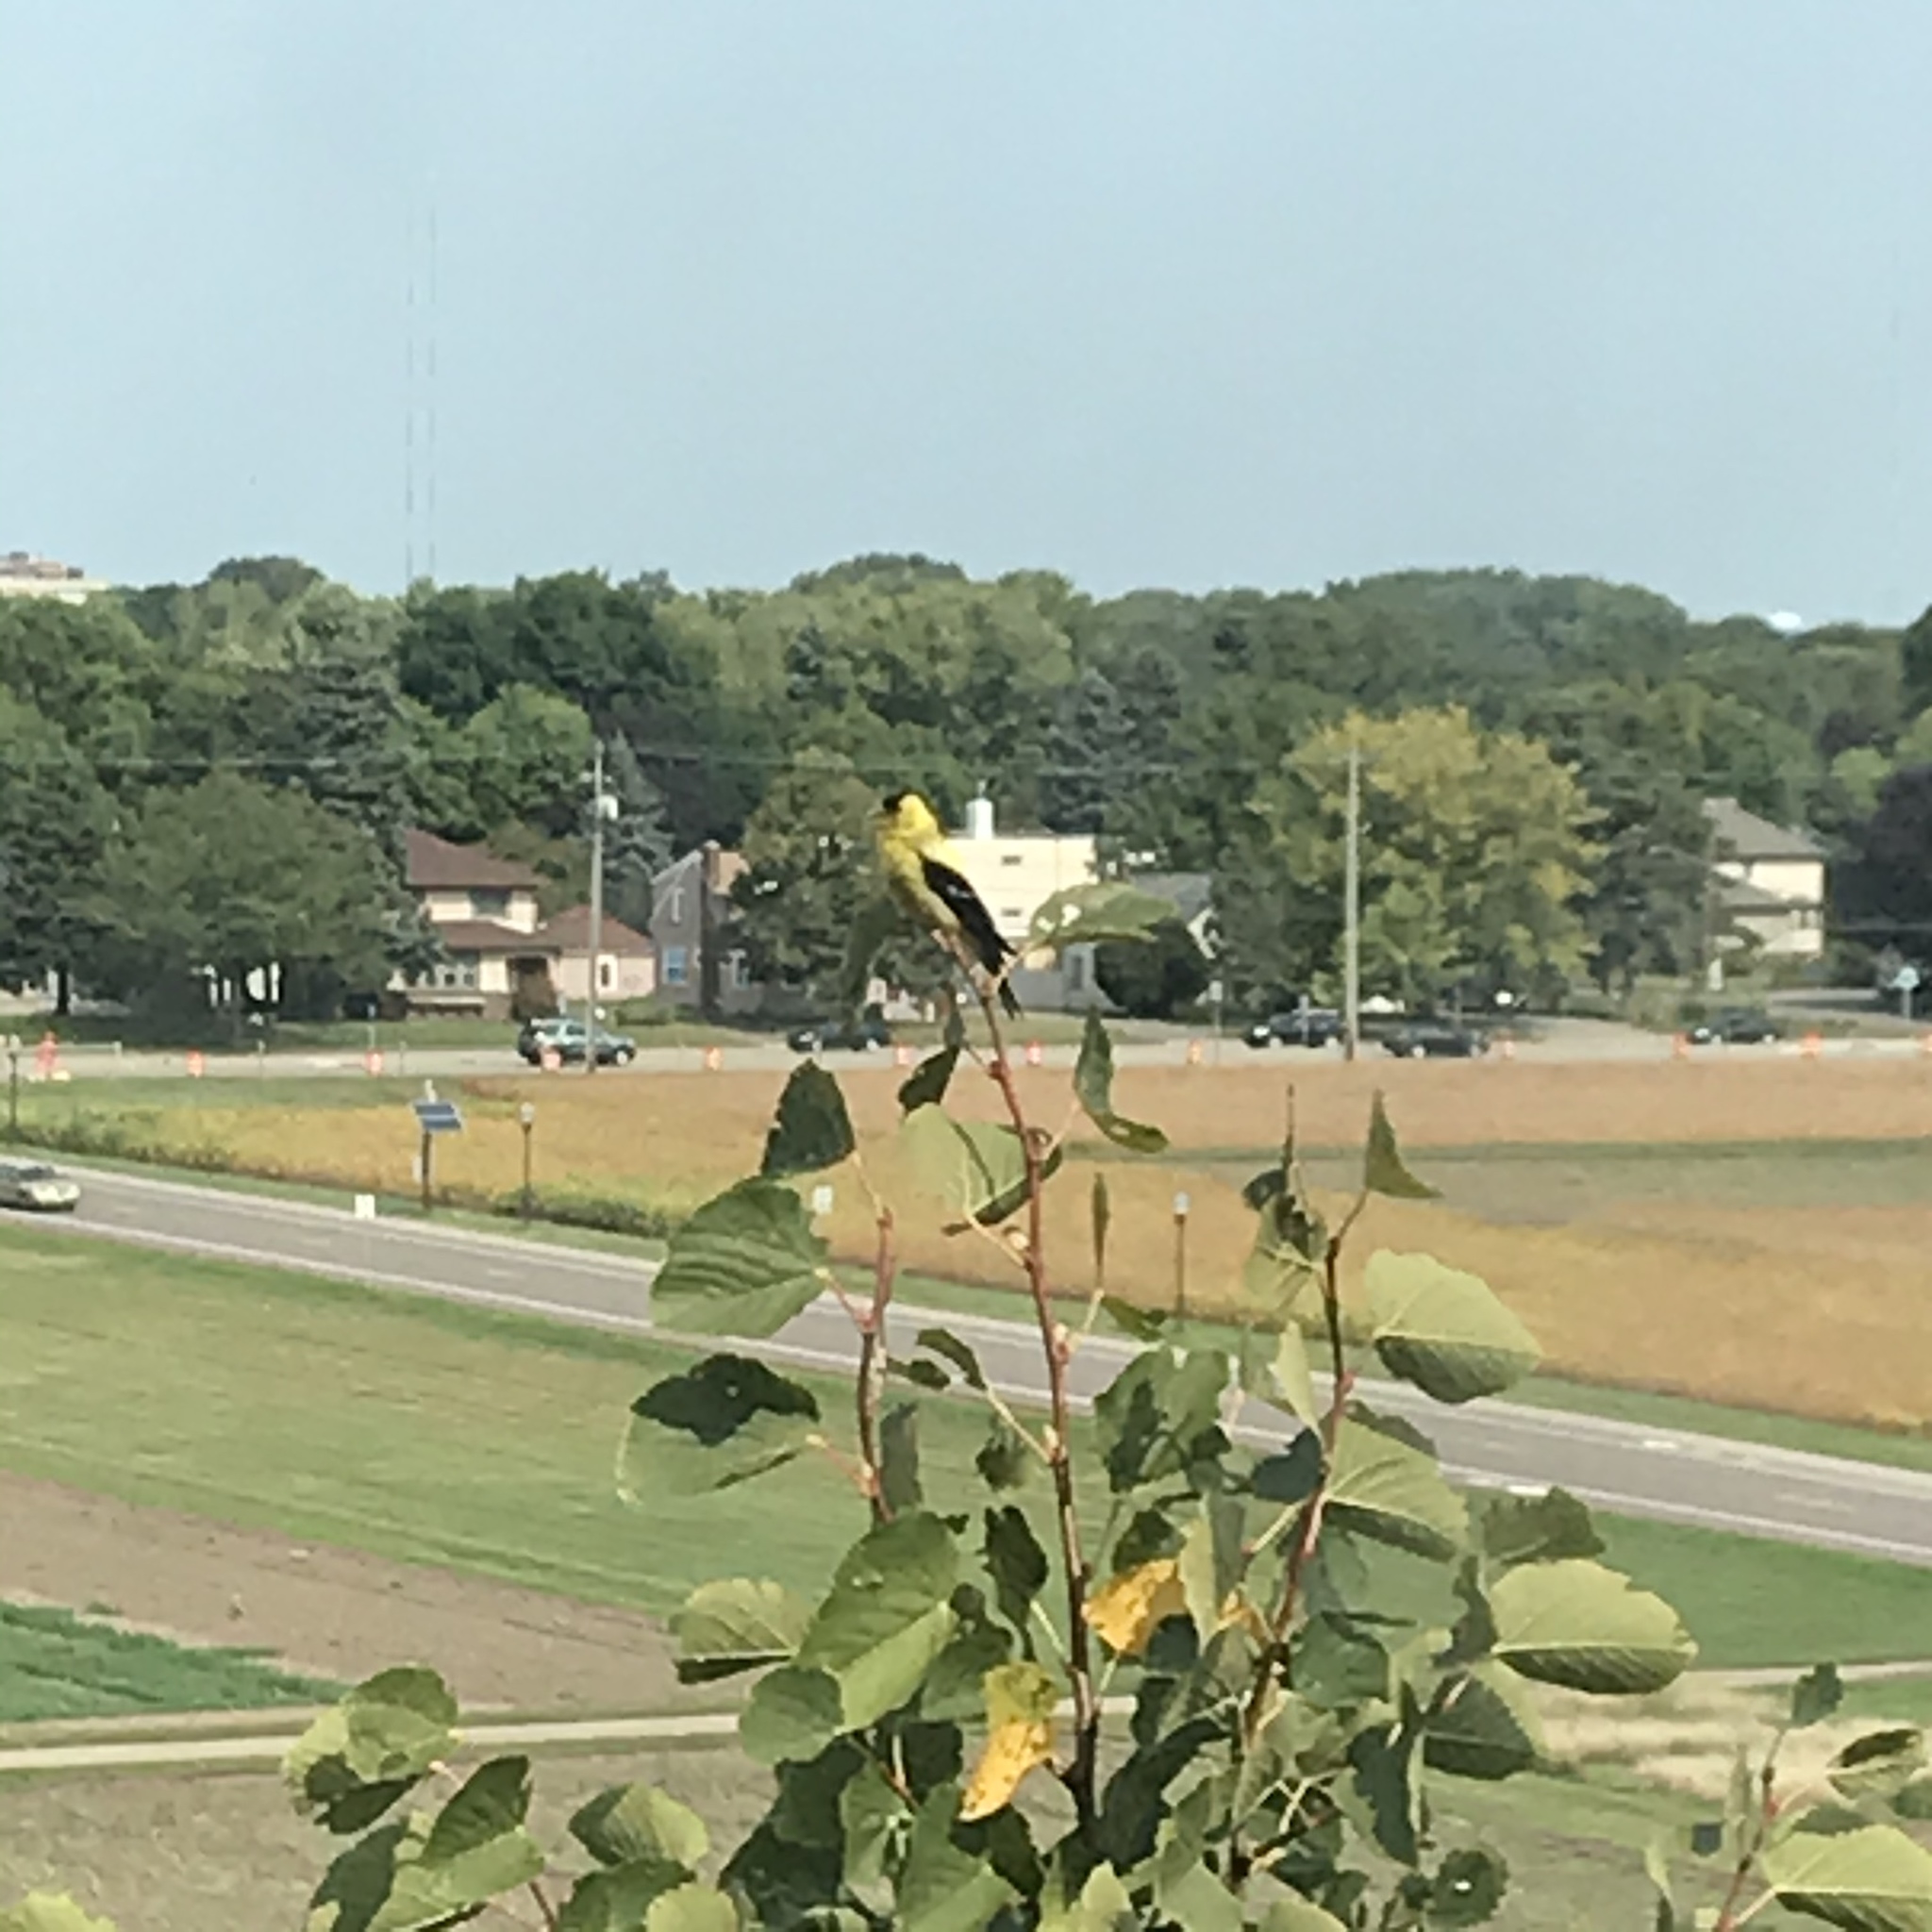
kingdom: Animalia
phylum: Chordata
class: Aves
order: Passeriformes
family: Fringillidae
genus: Spinus
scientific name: Spinus tristis
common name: American goldfinch
